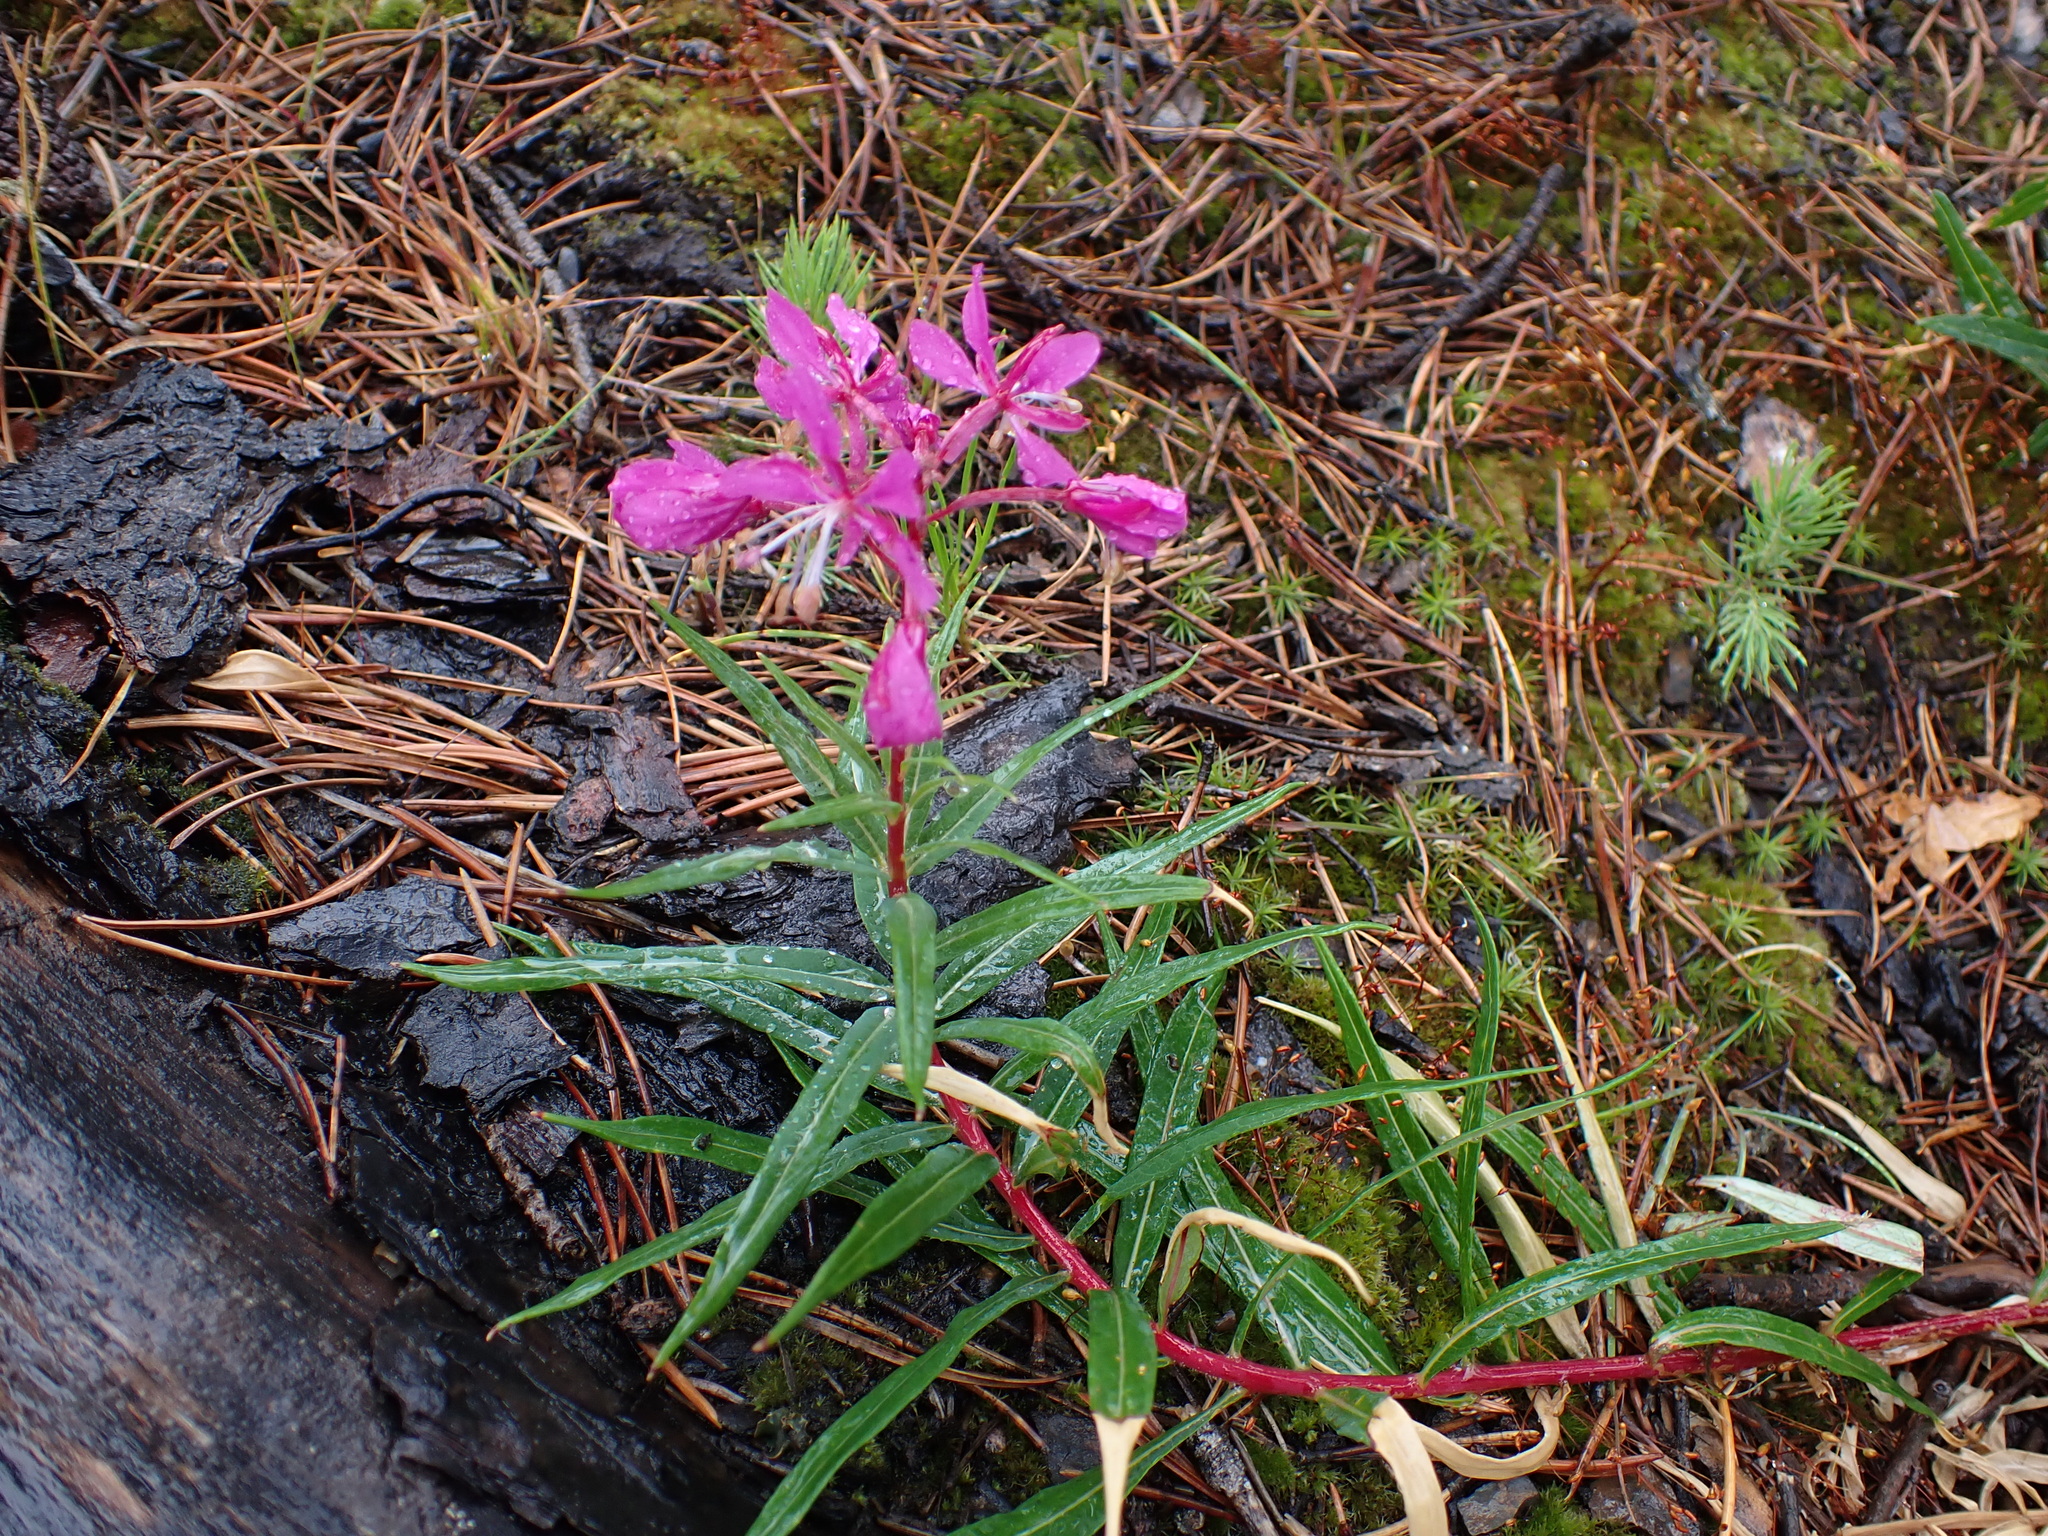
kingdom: Plantae
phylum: Tracheophyta
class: Magnoliopsida
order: Myrtales
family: Onagraceae
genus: Chamaenerion
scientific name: Chamaenerion angustifolium
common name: Fireweed
